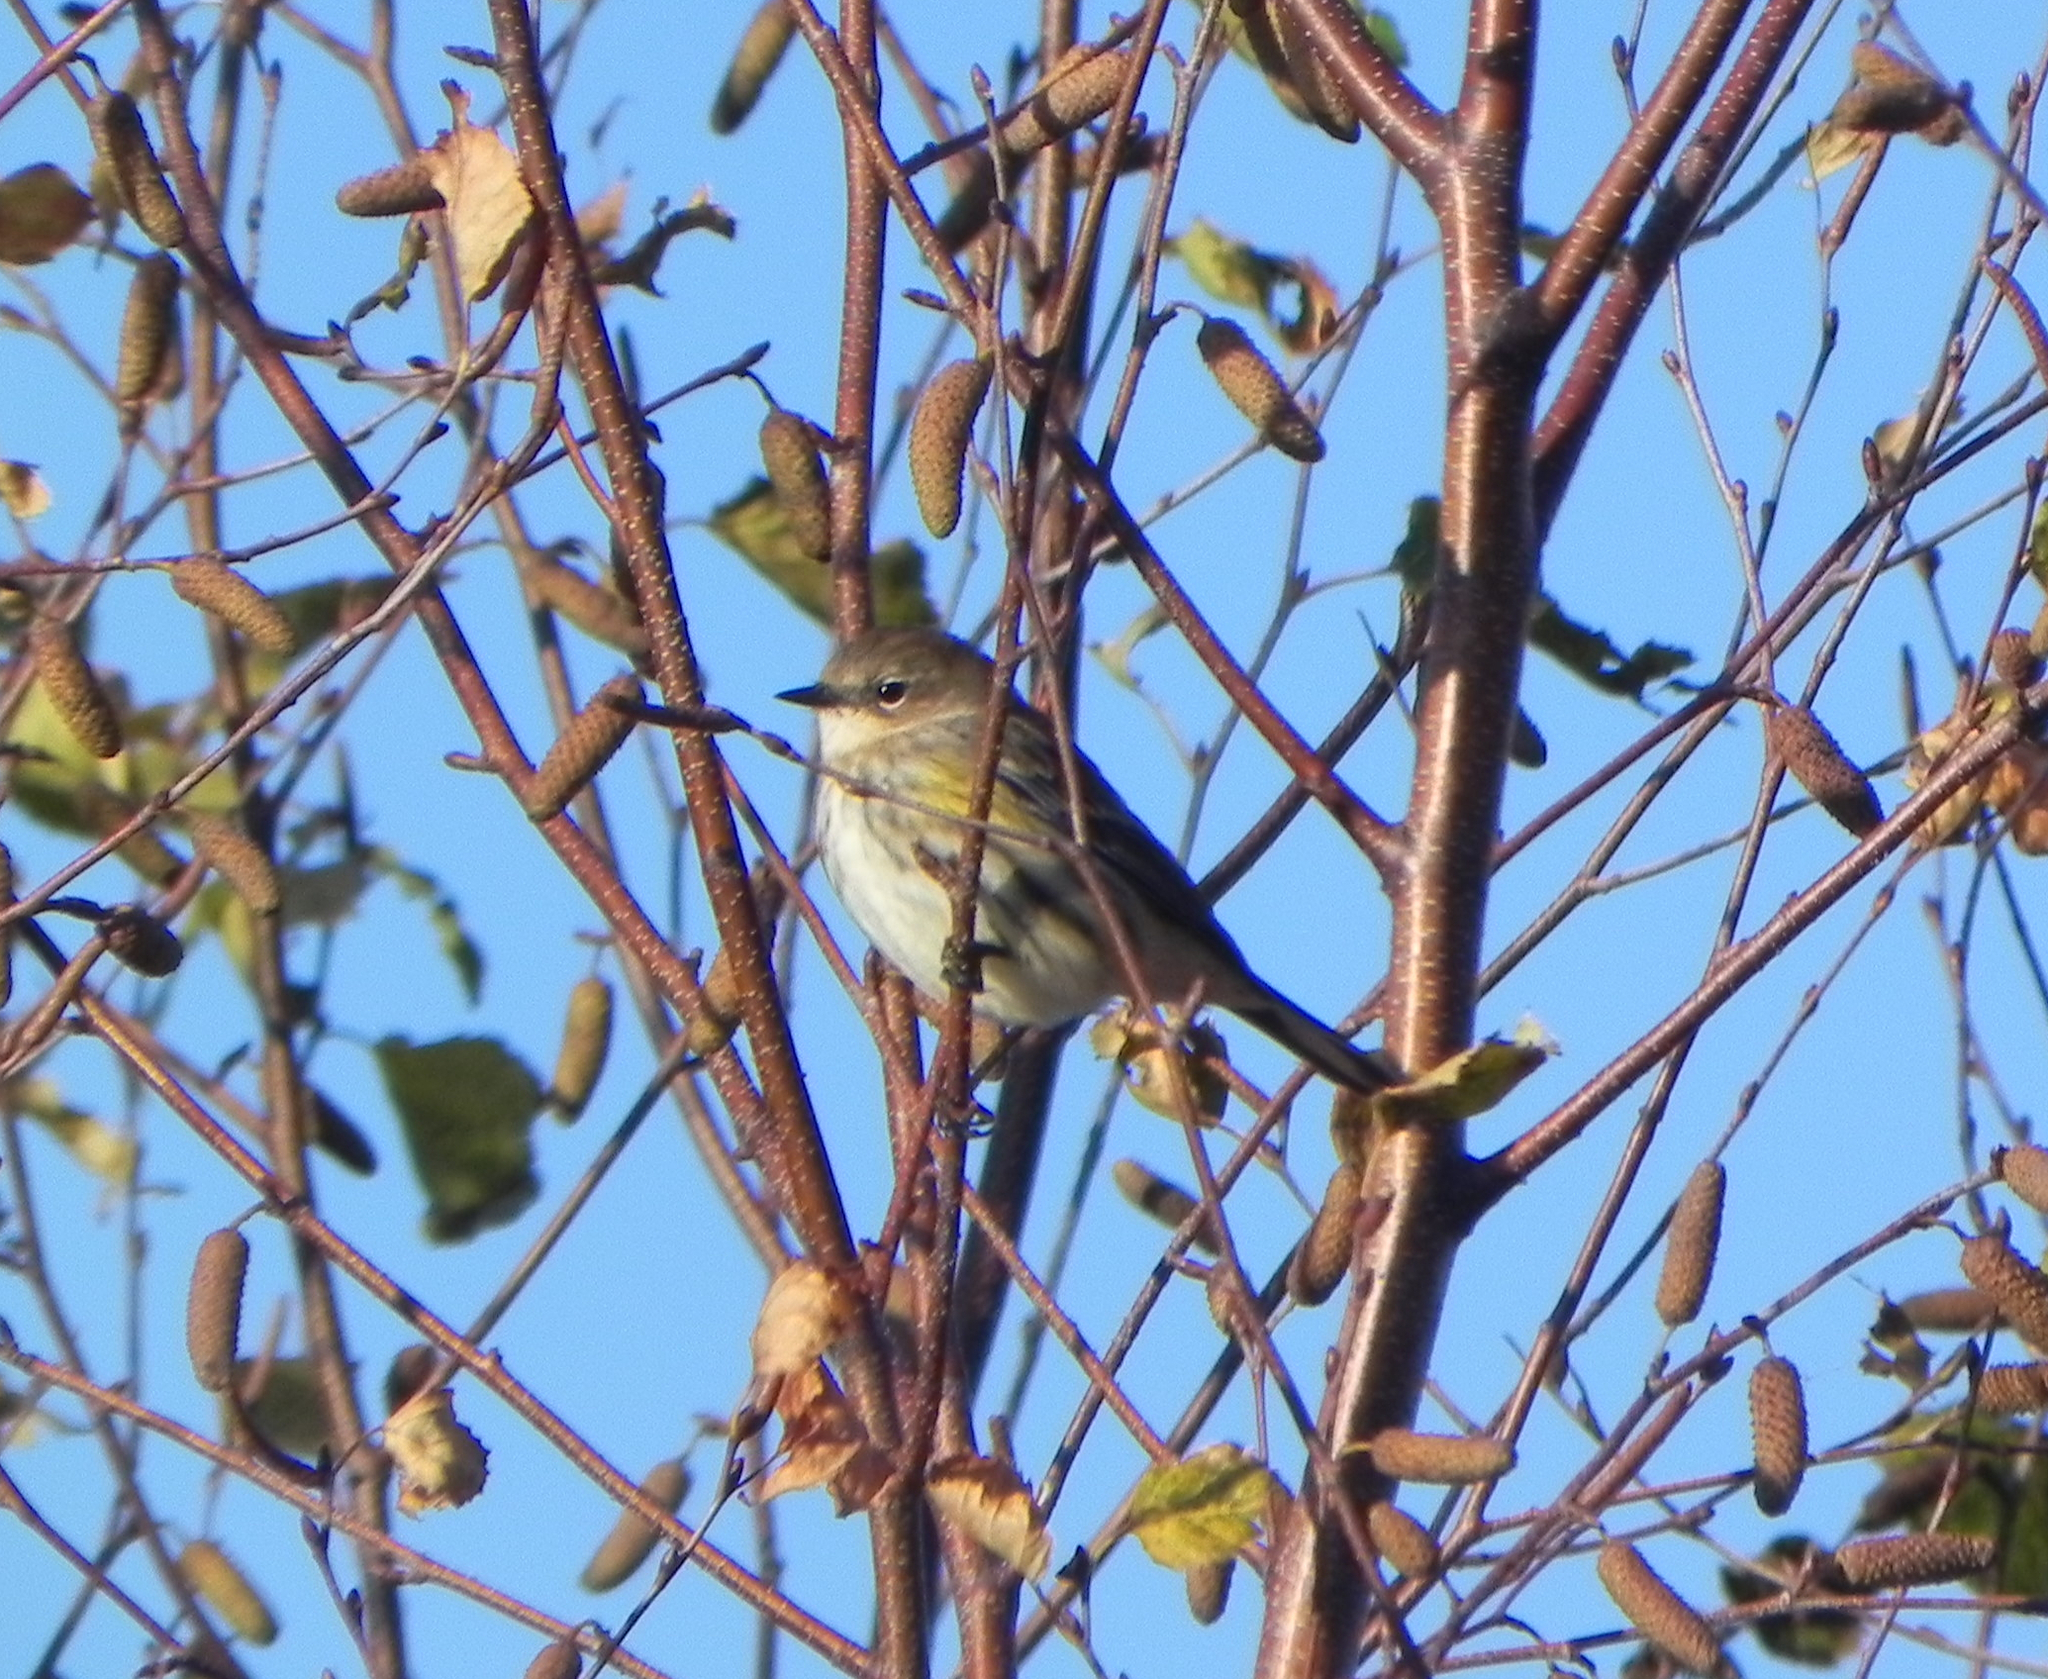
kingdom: Animalia
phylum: Chordata
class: Aves
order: Passeriformes
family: Parulidae
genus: Setophaga
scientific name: Setophaga coronata
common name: Myrtle warbler
